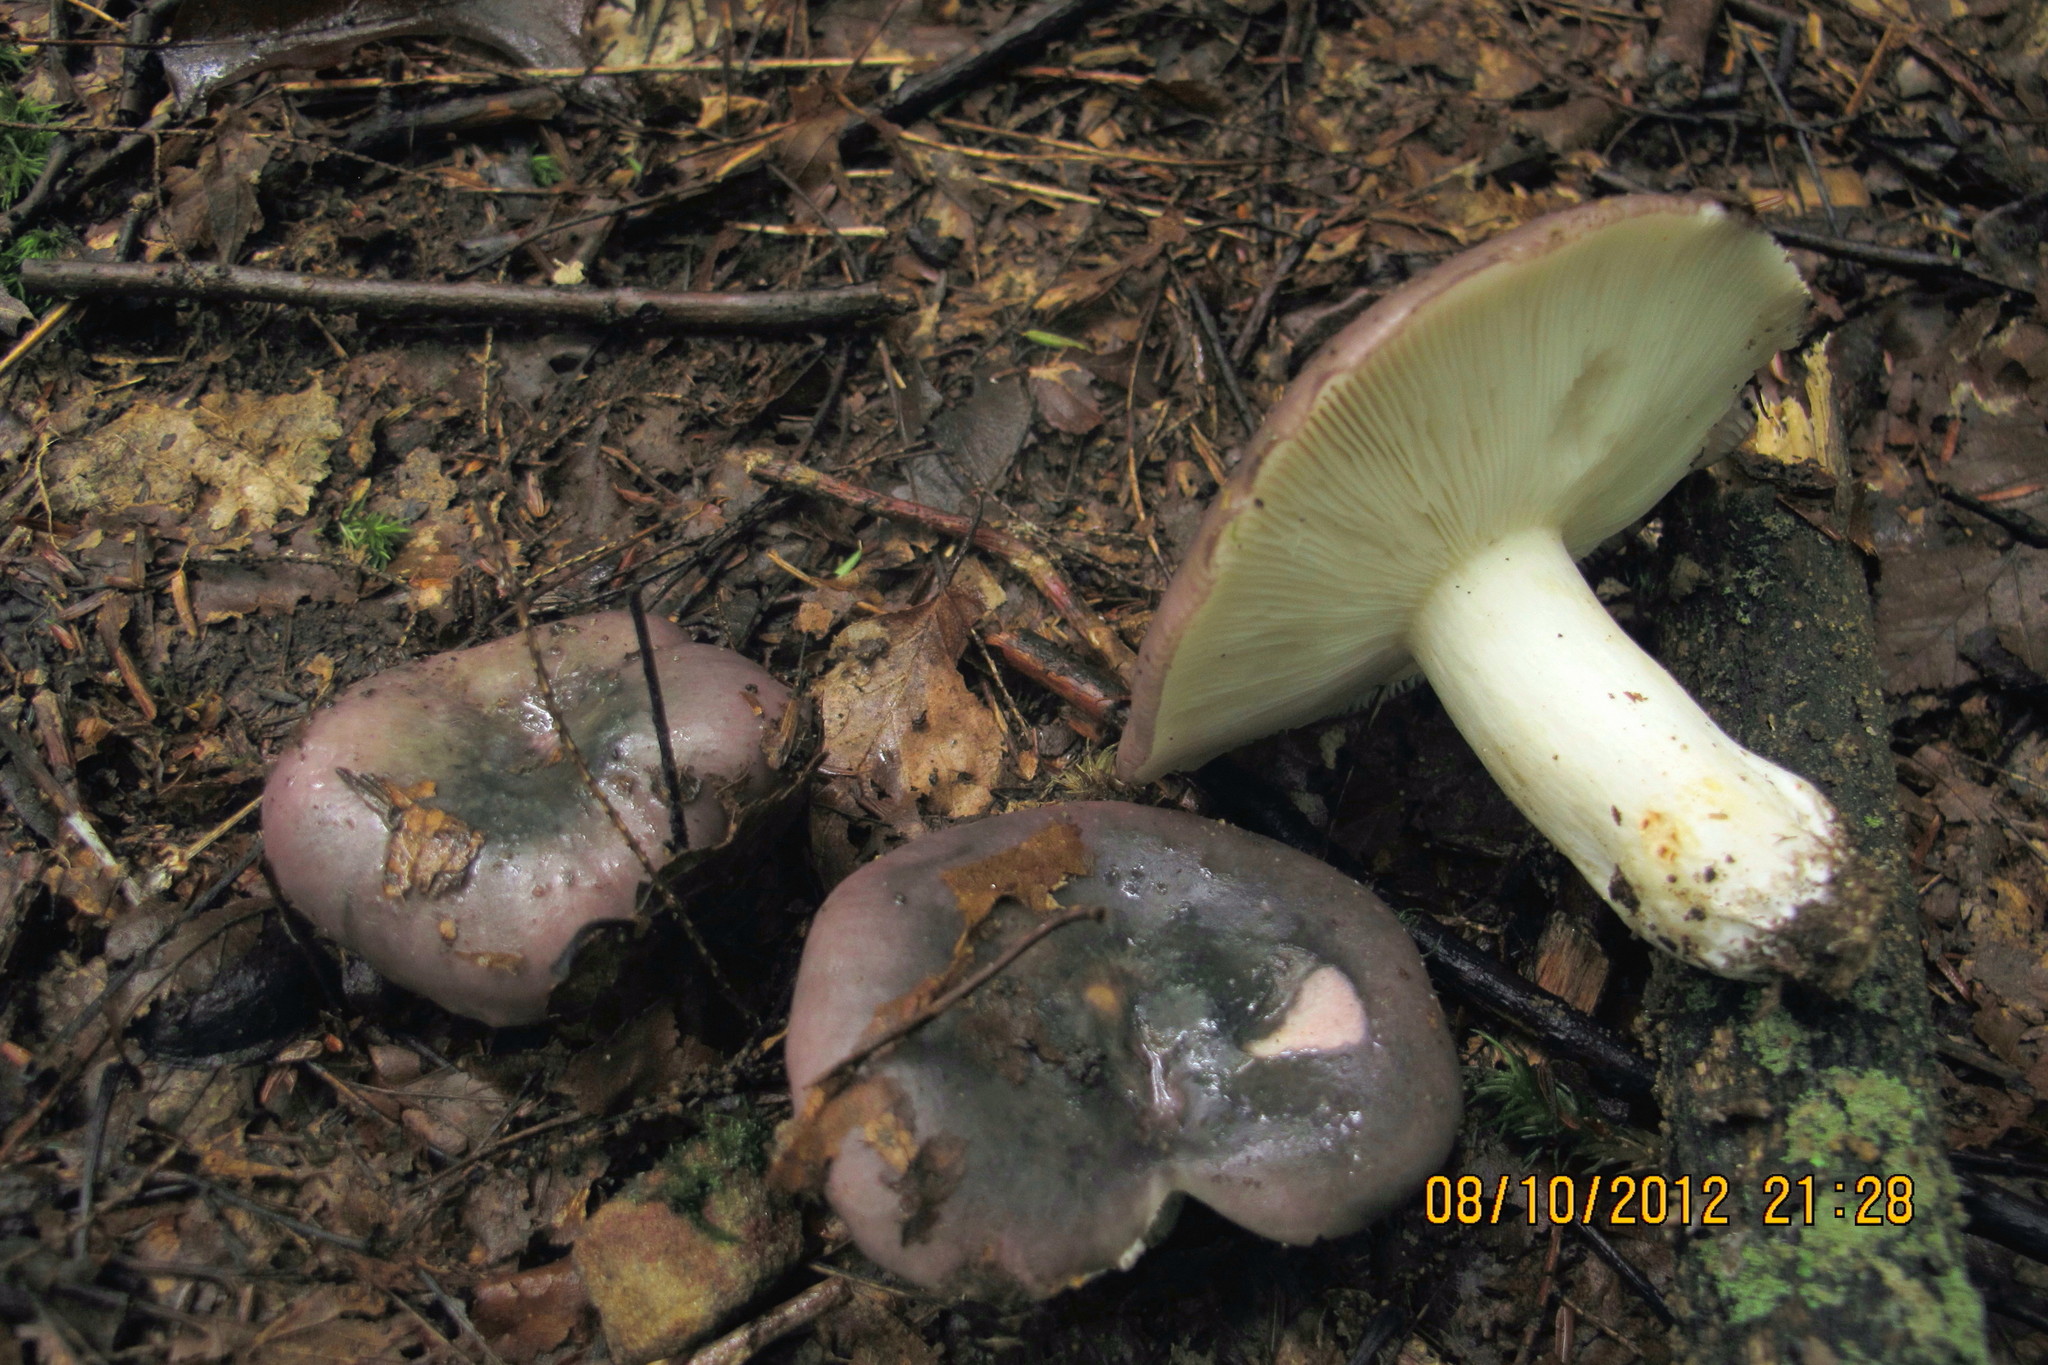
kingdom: Fungi
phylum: Basidiomycota
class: Agaricomycetes
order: Russulales
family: Russulaceae
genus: Russula
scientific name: Russula cyanoxantha
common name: Charcoal burner
